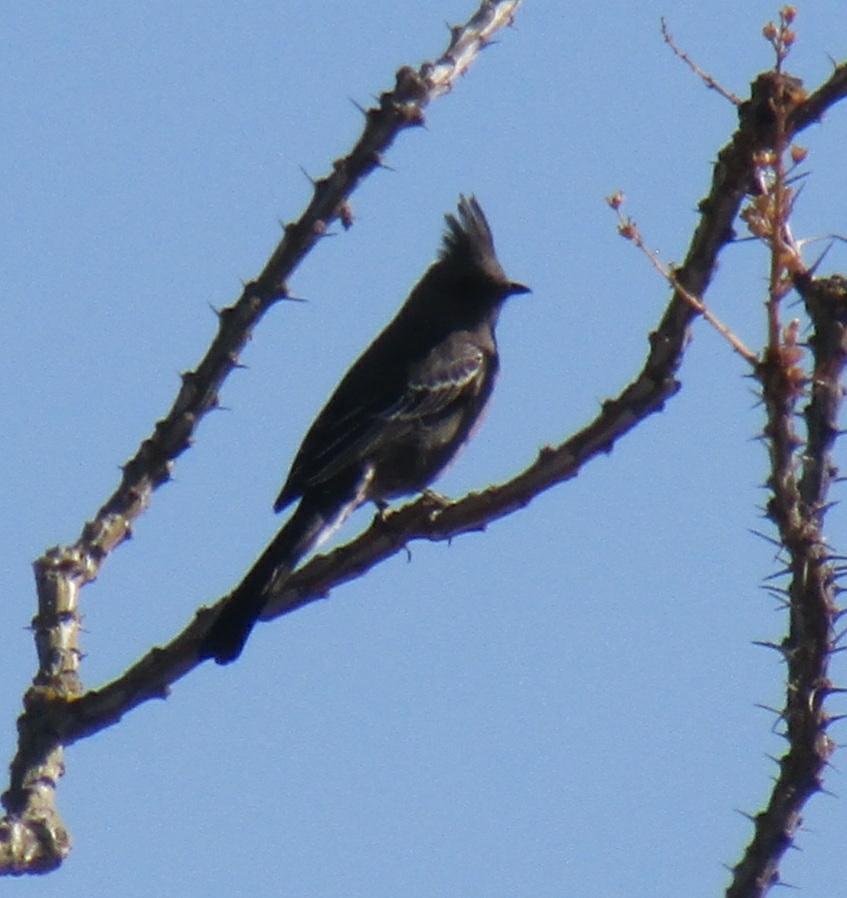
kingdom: Animalia
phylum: Chordata
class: Aves
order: Passeriformes
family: Ptilogonatidae
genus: Phainopepla
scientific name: Phainopepla nitens
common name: Phainopepla
